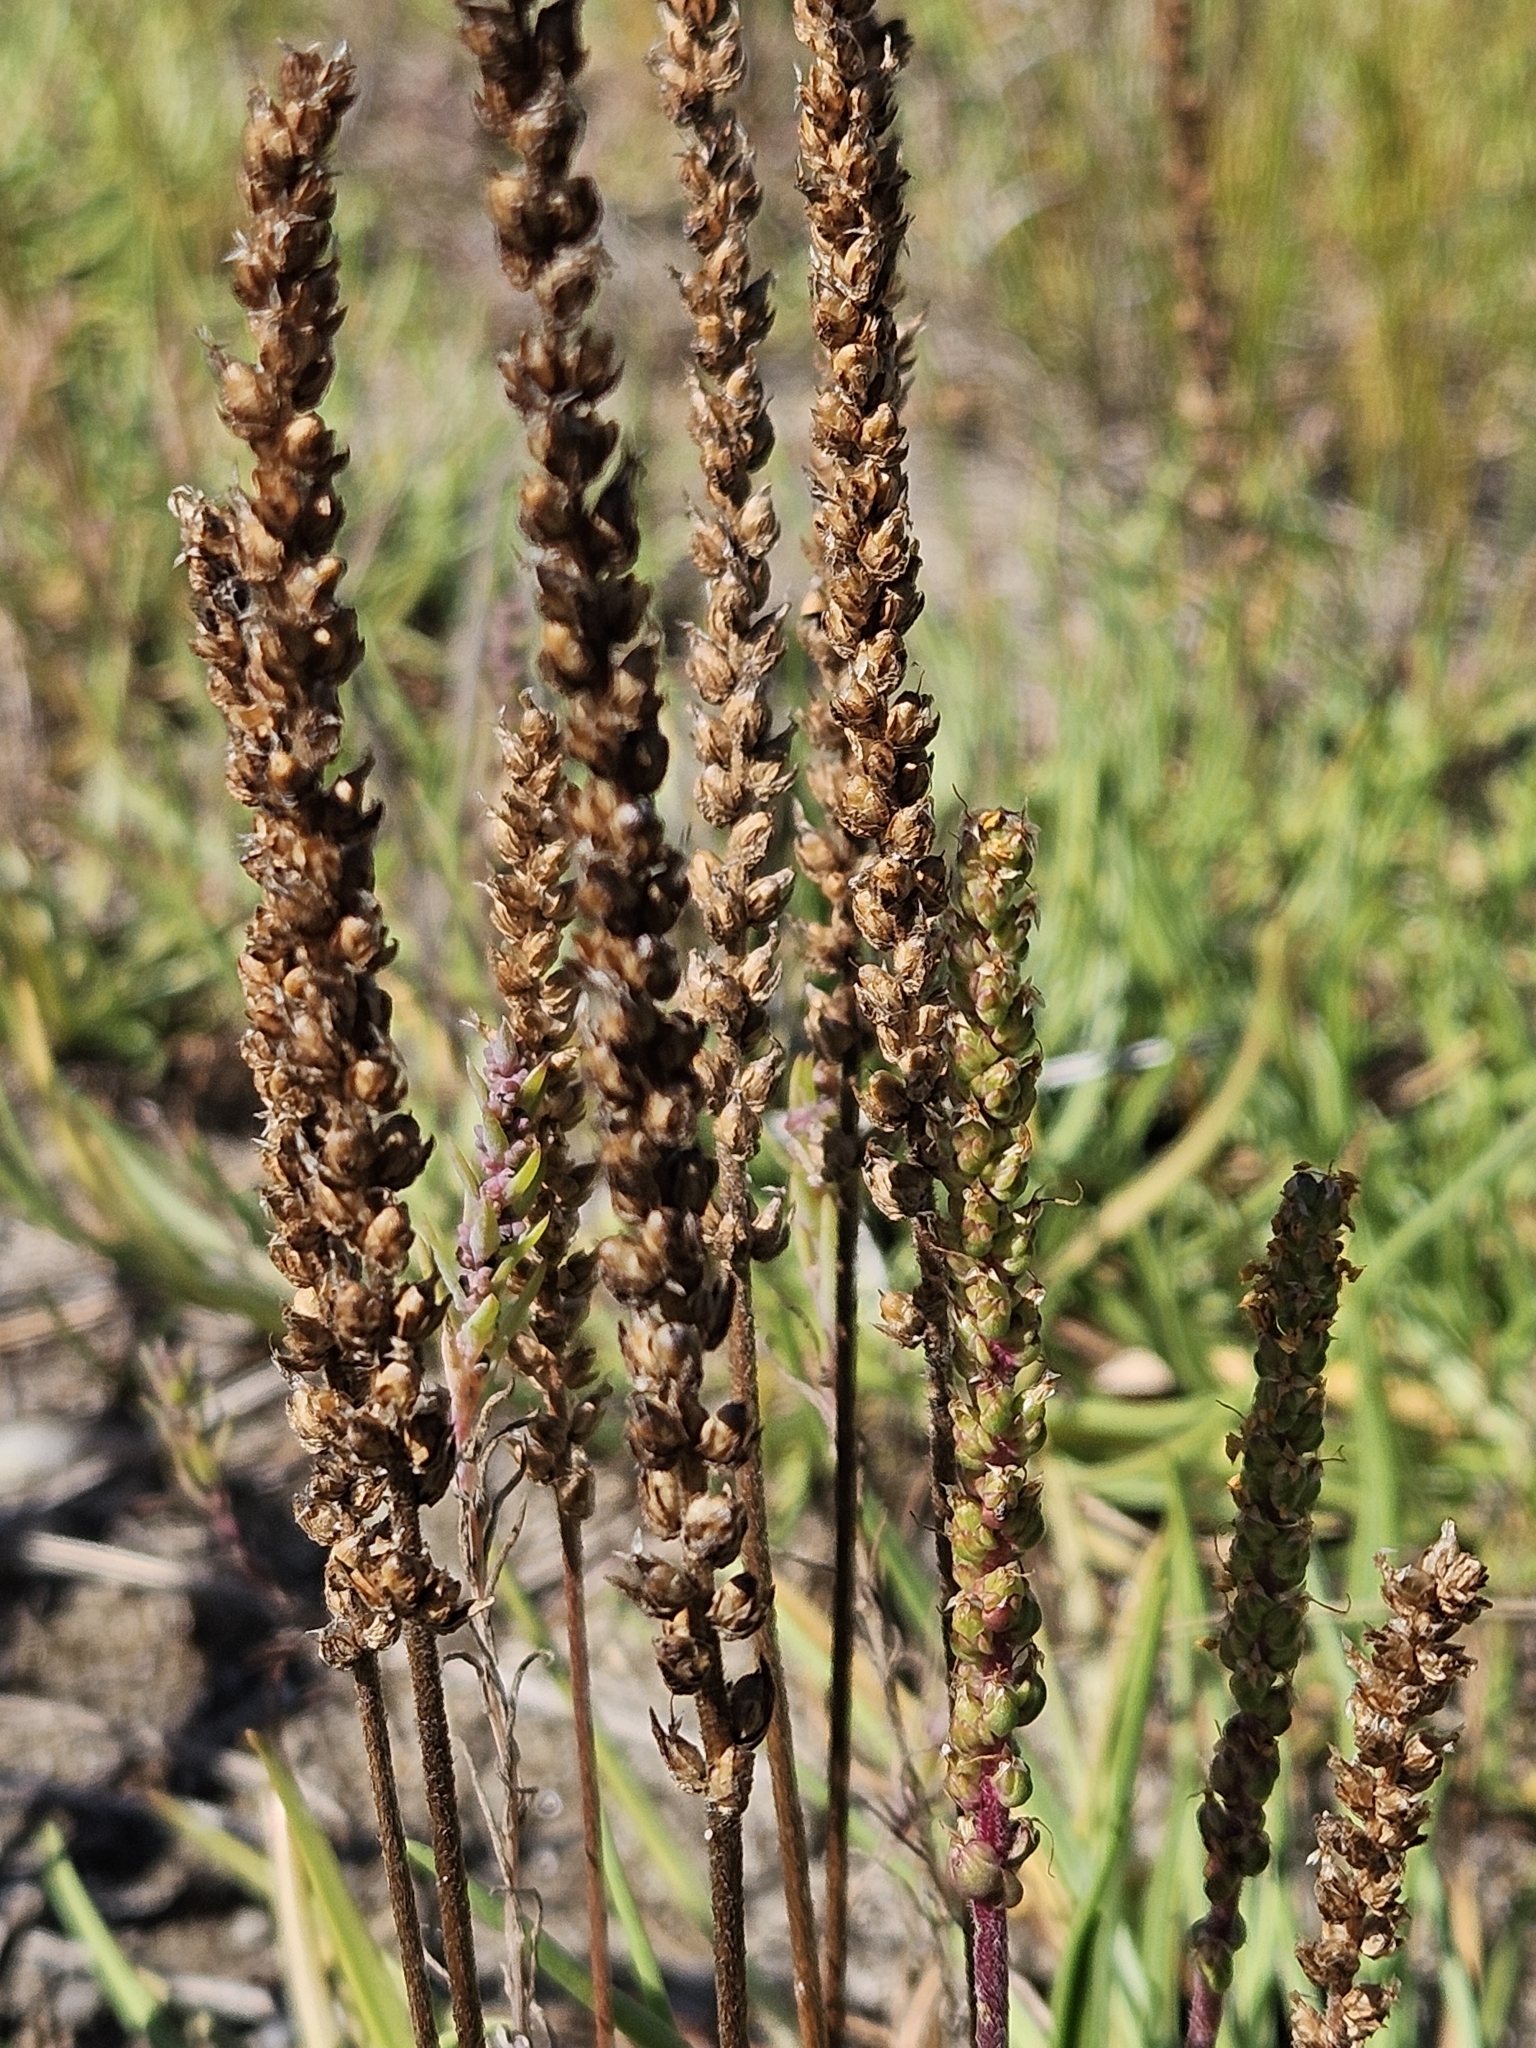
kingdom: Plantae
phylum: Tracheophyta
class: Magnoliopsida
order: Lamiales
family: Plantaginaceae
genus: Plantago
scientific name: Plantago maritima
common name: Sea plantain
